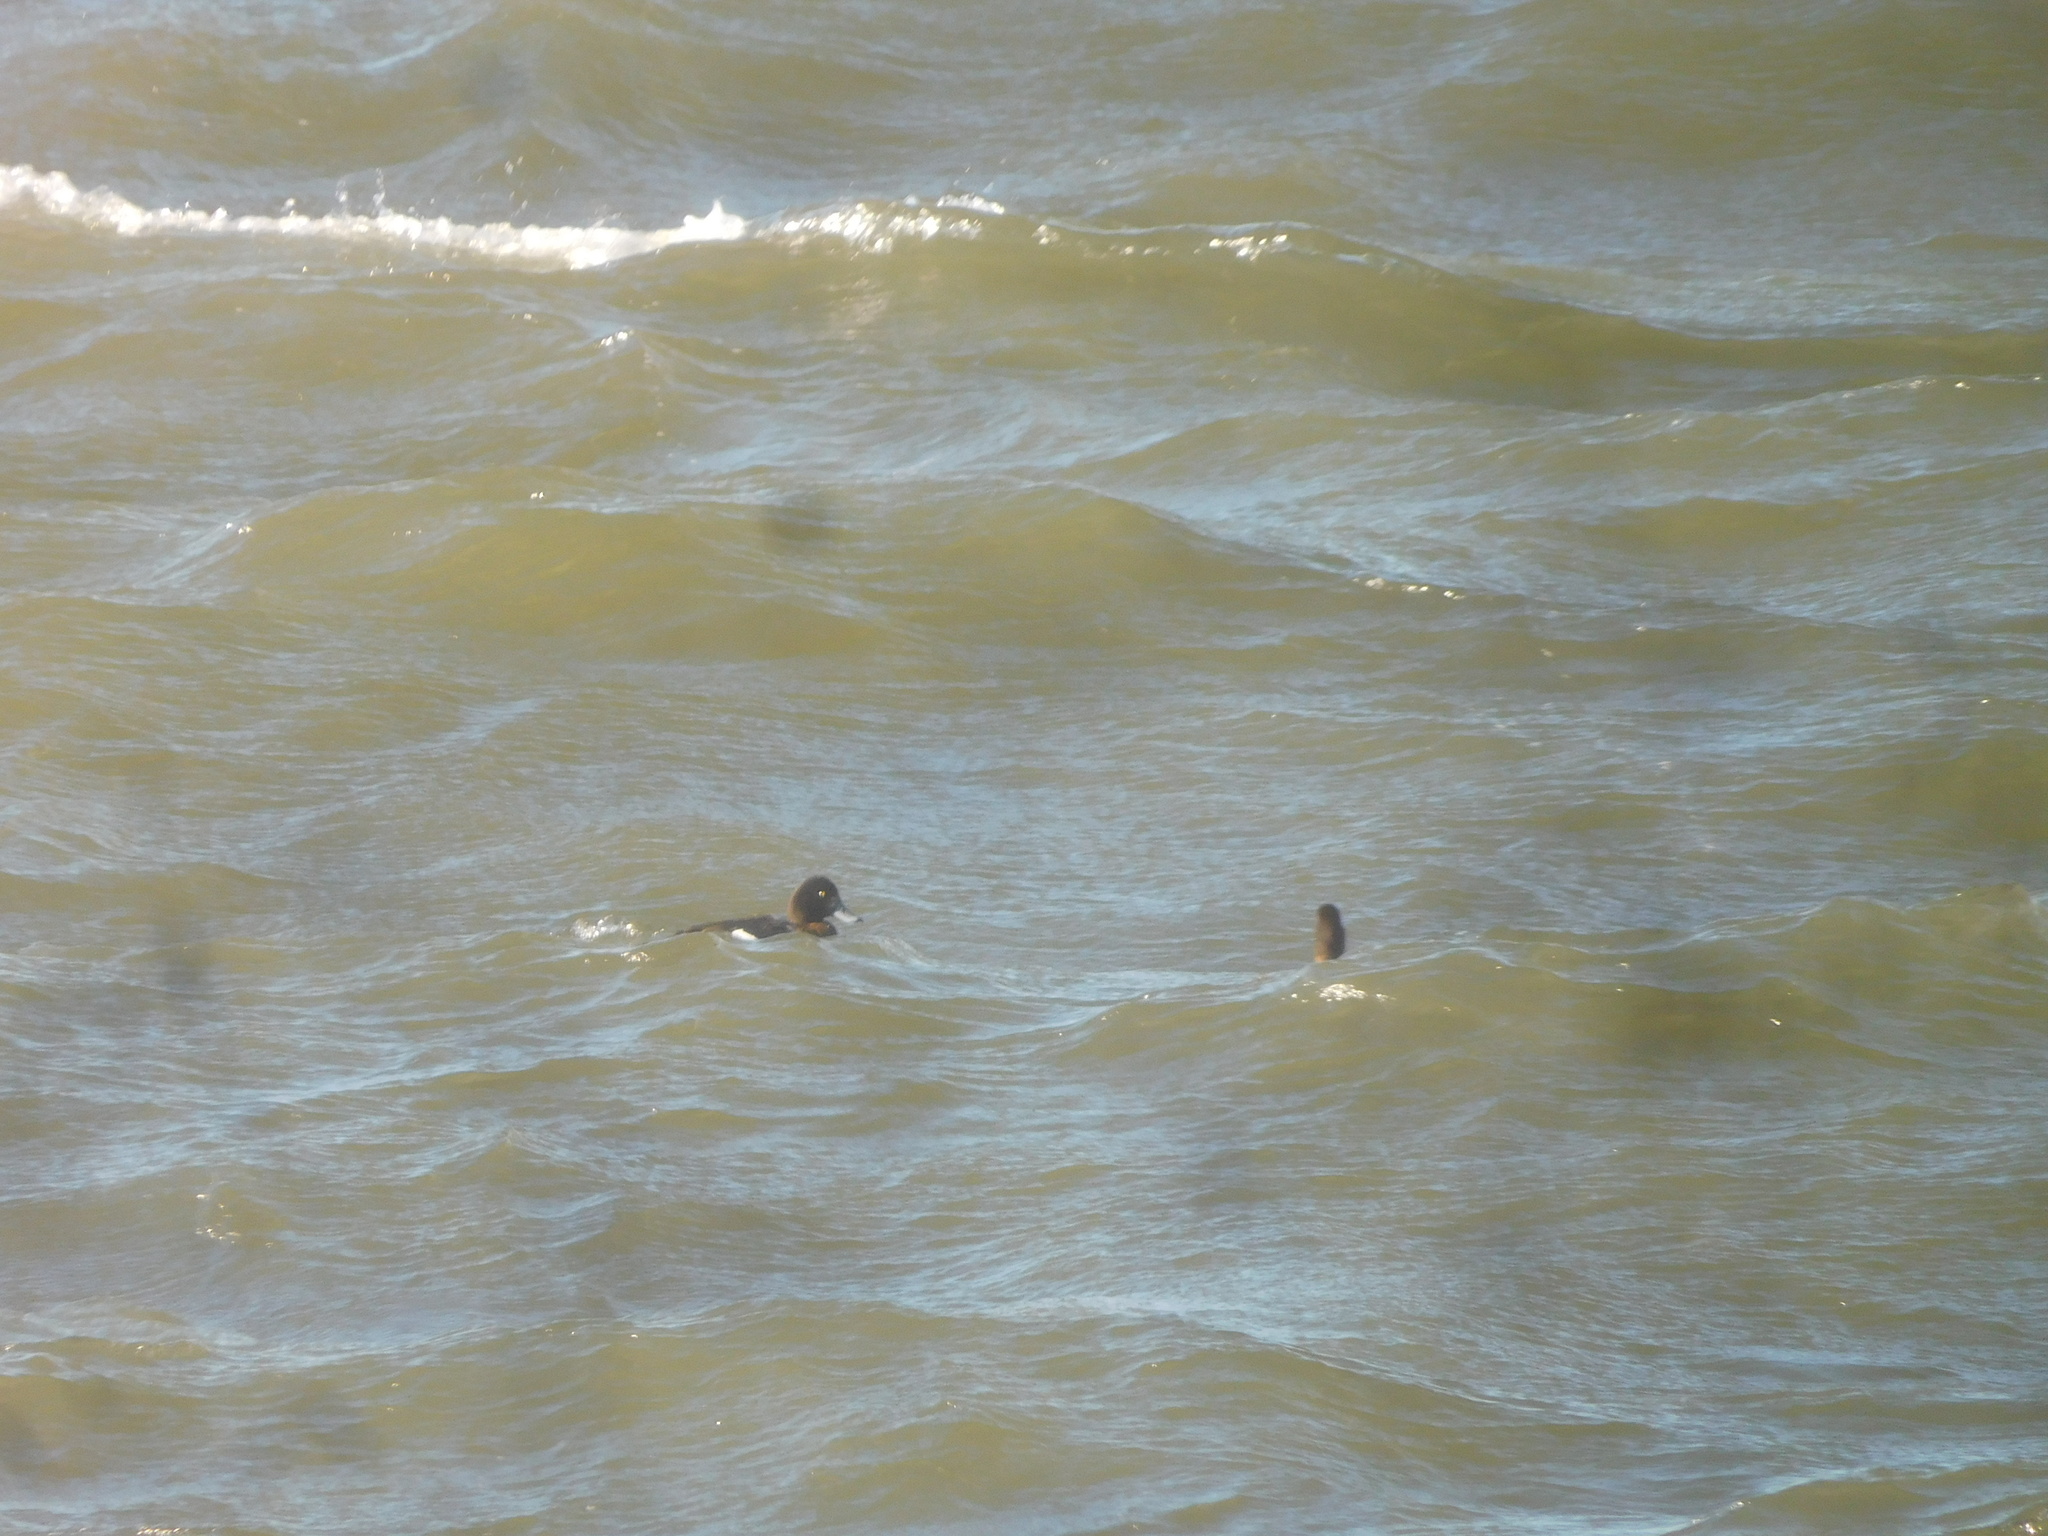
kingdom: Animalia
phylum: Chordata
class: Aves
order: Anseriformes
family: Anatidae
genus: Aythya
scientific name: Aythya marila
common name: Greater scaup
